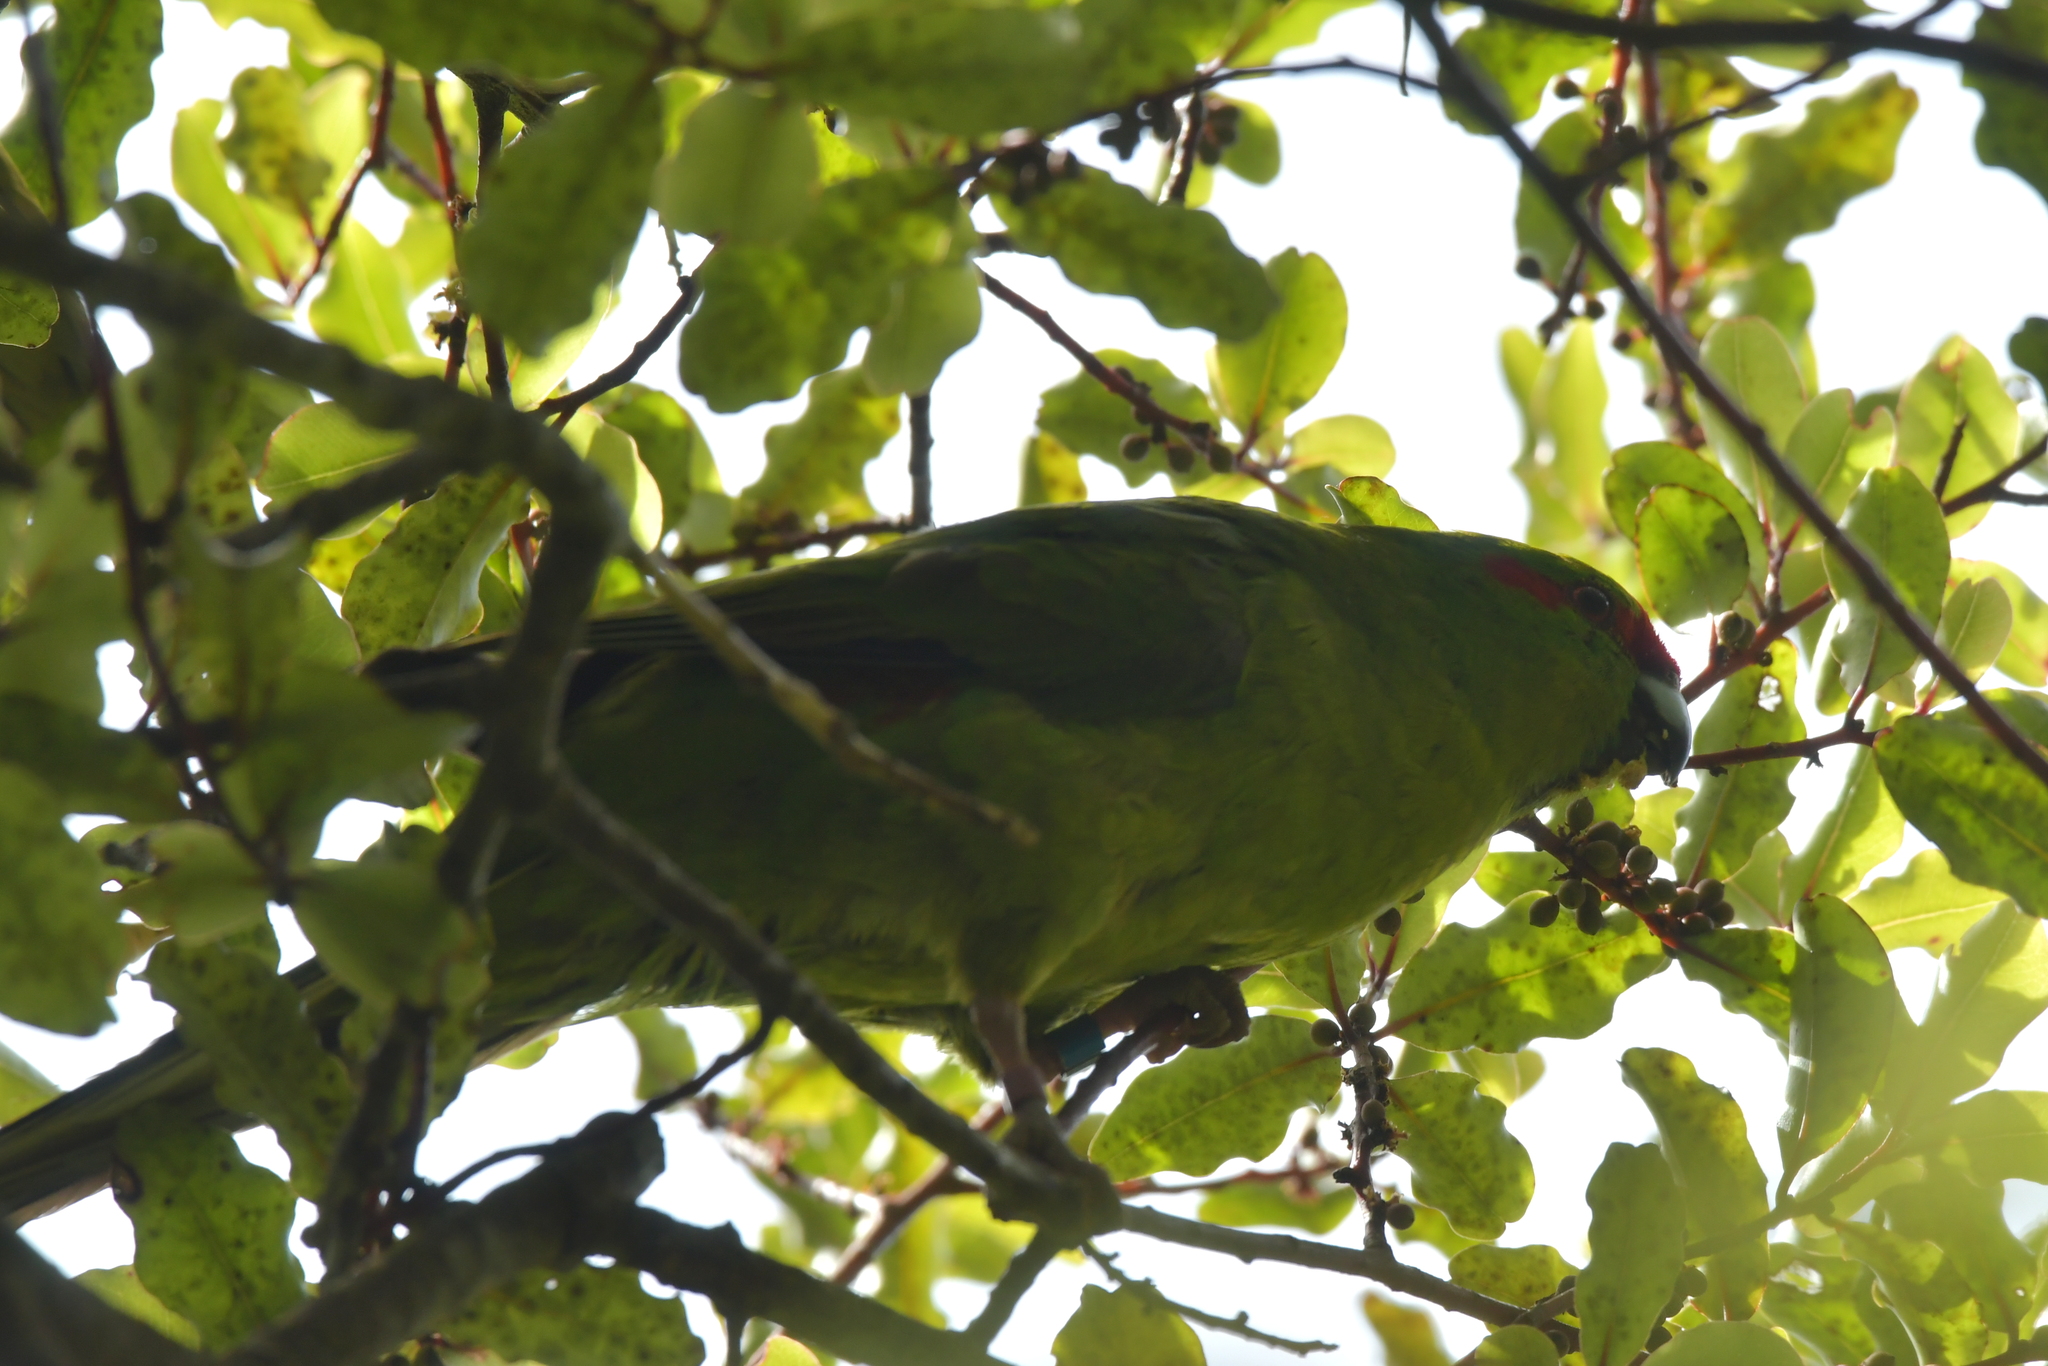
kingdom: Animalia
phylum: Chordata
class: Aves
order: Psittaciformes
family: Psittacidae
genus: Cyanoramphus
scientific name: Cyanoramphus novaezelandiae
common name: Red-fronted parakeet
